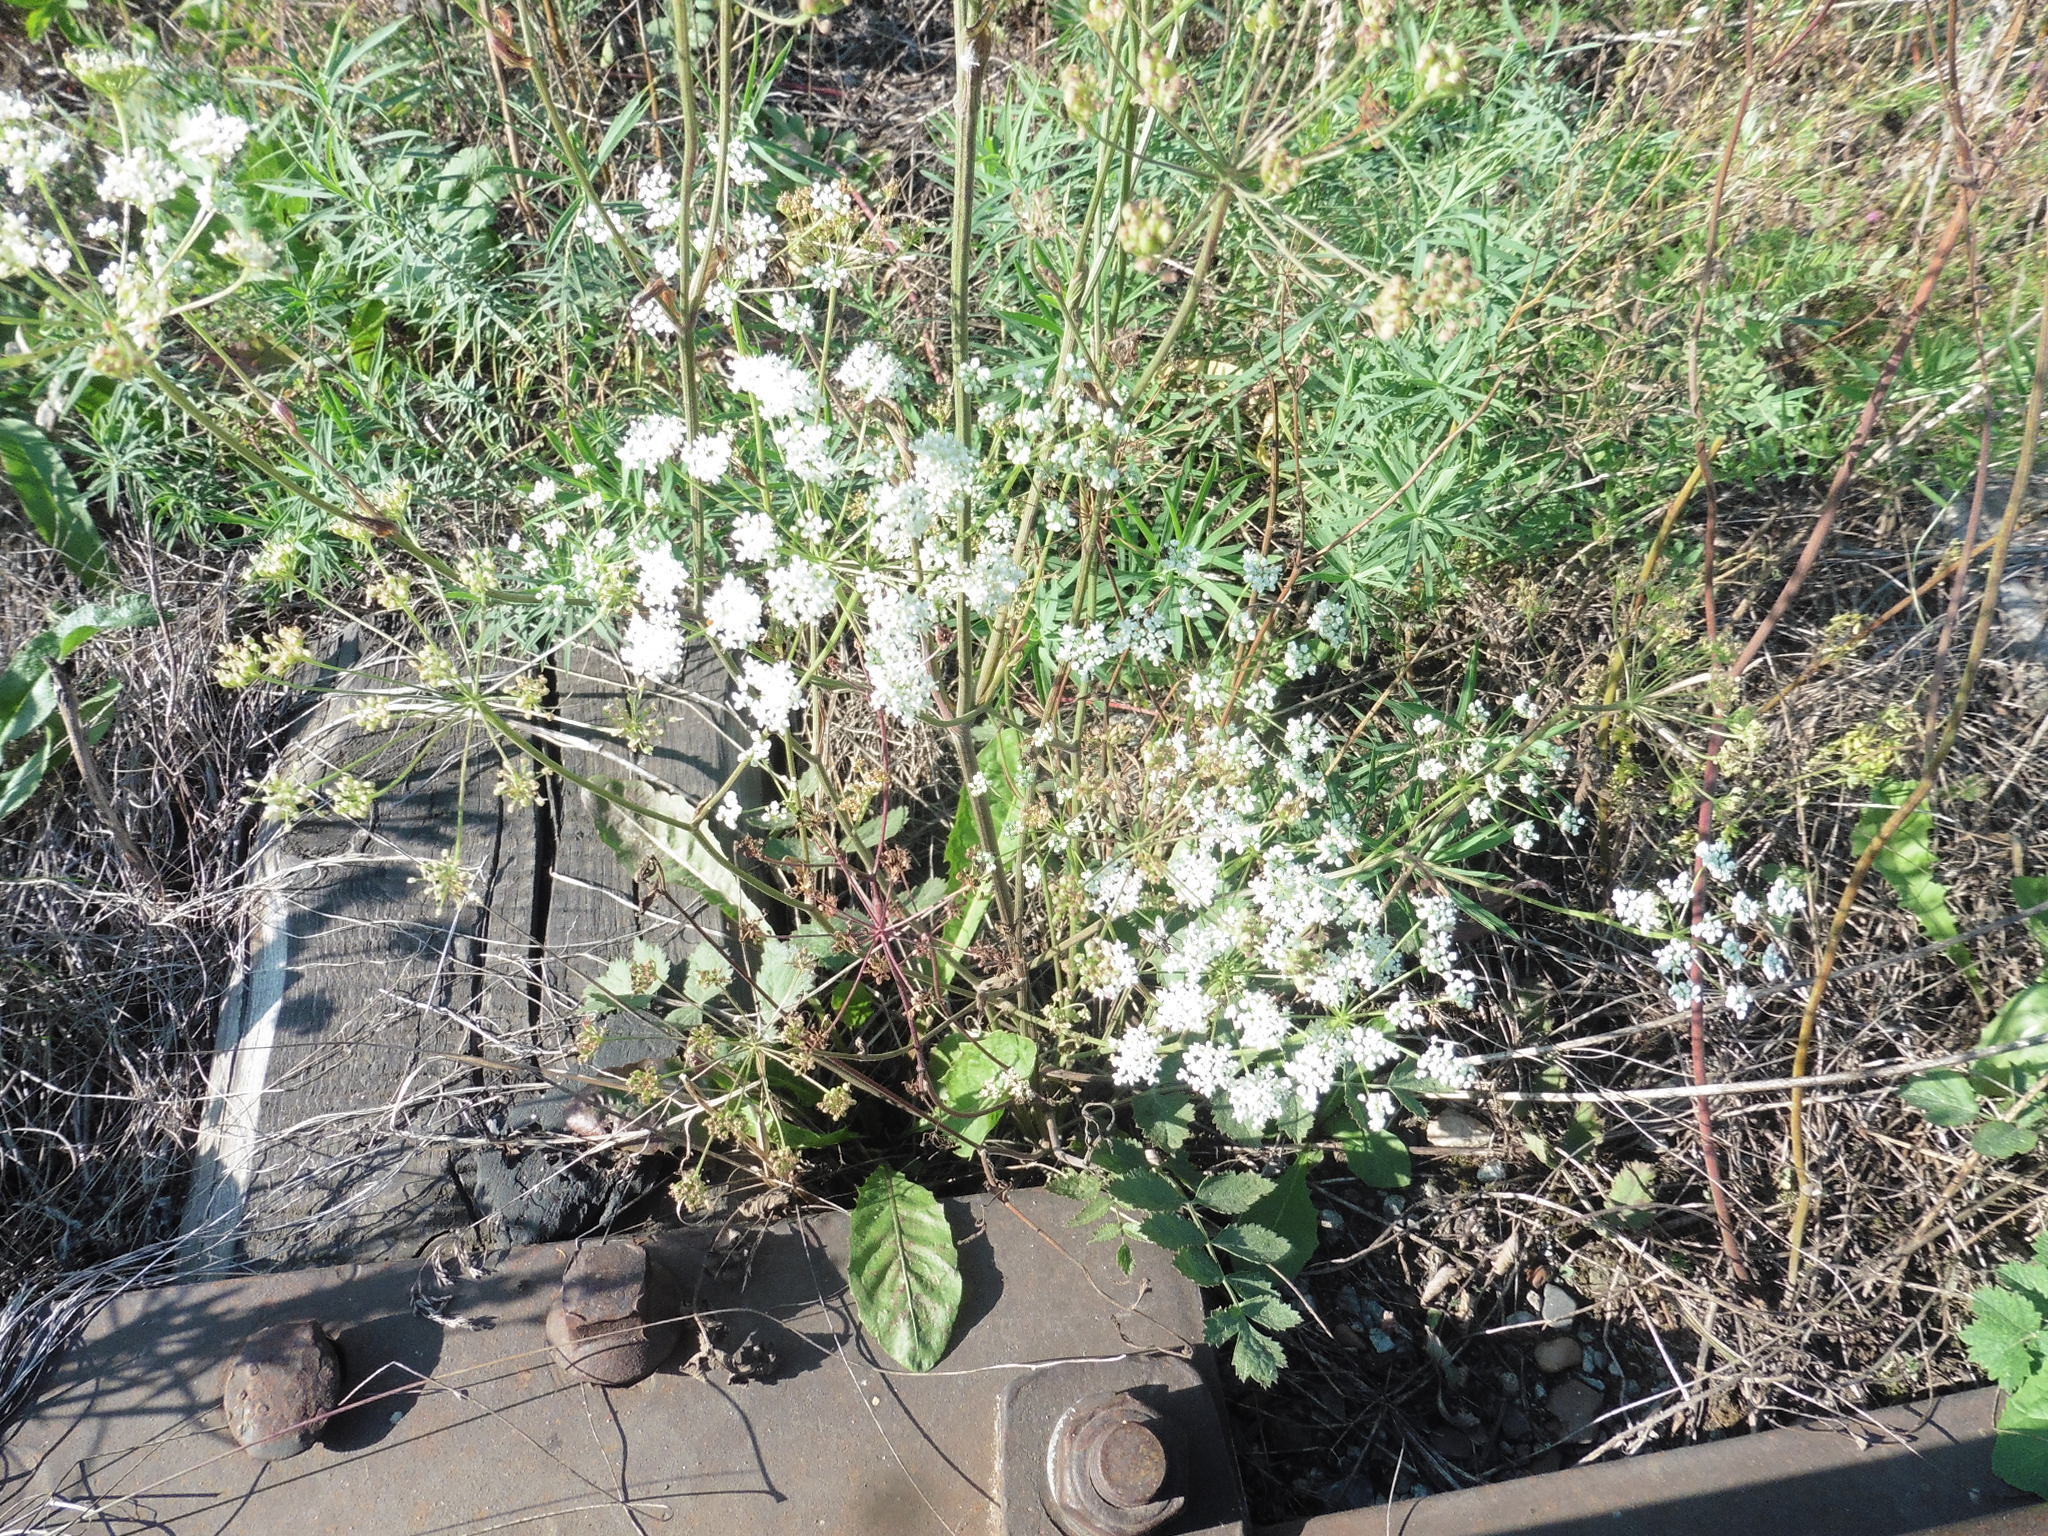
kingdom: Plantae
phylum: Tracheophyta
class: Magnoliopsida
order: Apiales
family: Apiaceae
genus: Pimpinella
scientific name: Pimpinella saxifraga
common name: Burnet-saxifrage
